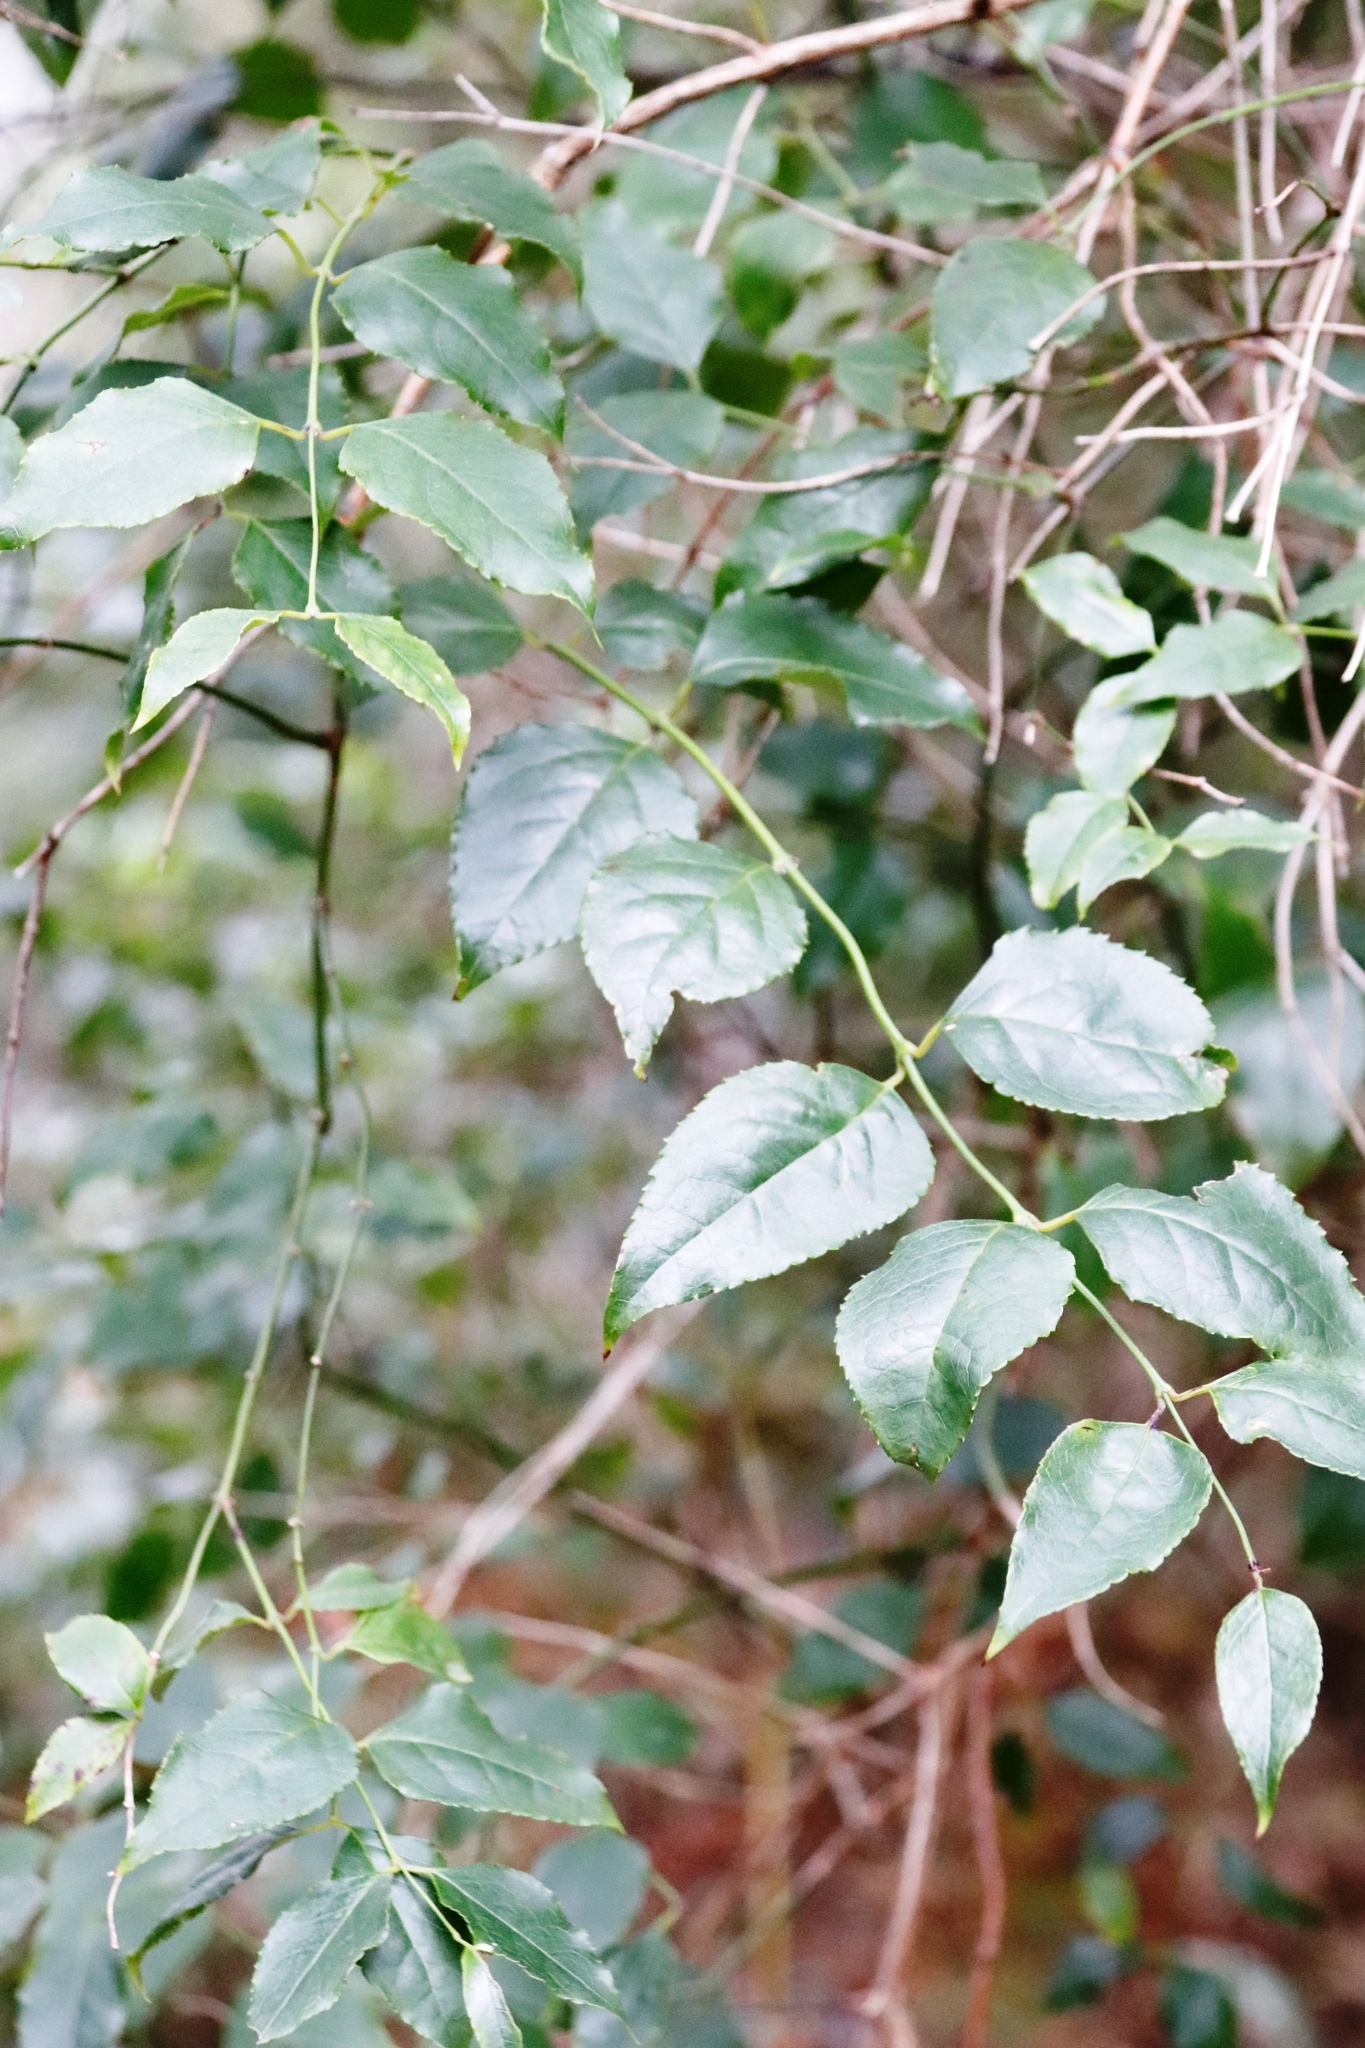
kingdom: Plantae
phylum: Tracheophyta
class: Magnoliopsida
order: Lamiales
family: Stilbaceae
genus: Halleria
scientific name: Halleria lucida
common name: Tree fuschia
